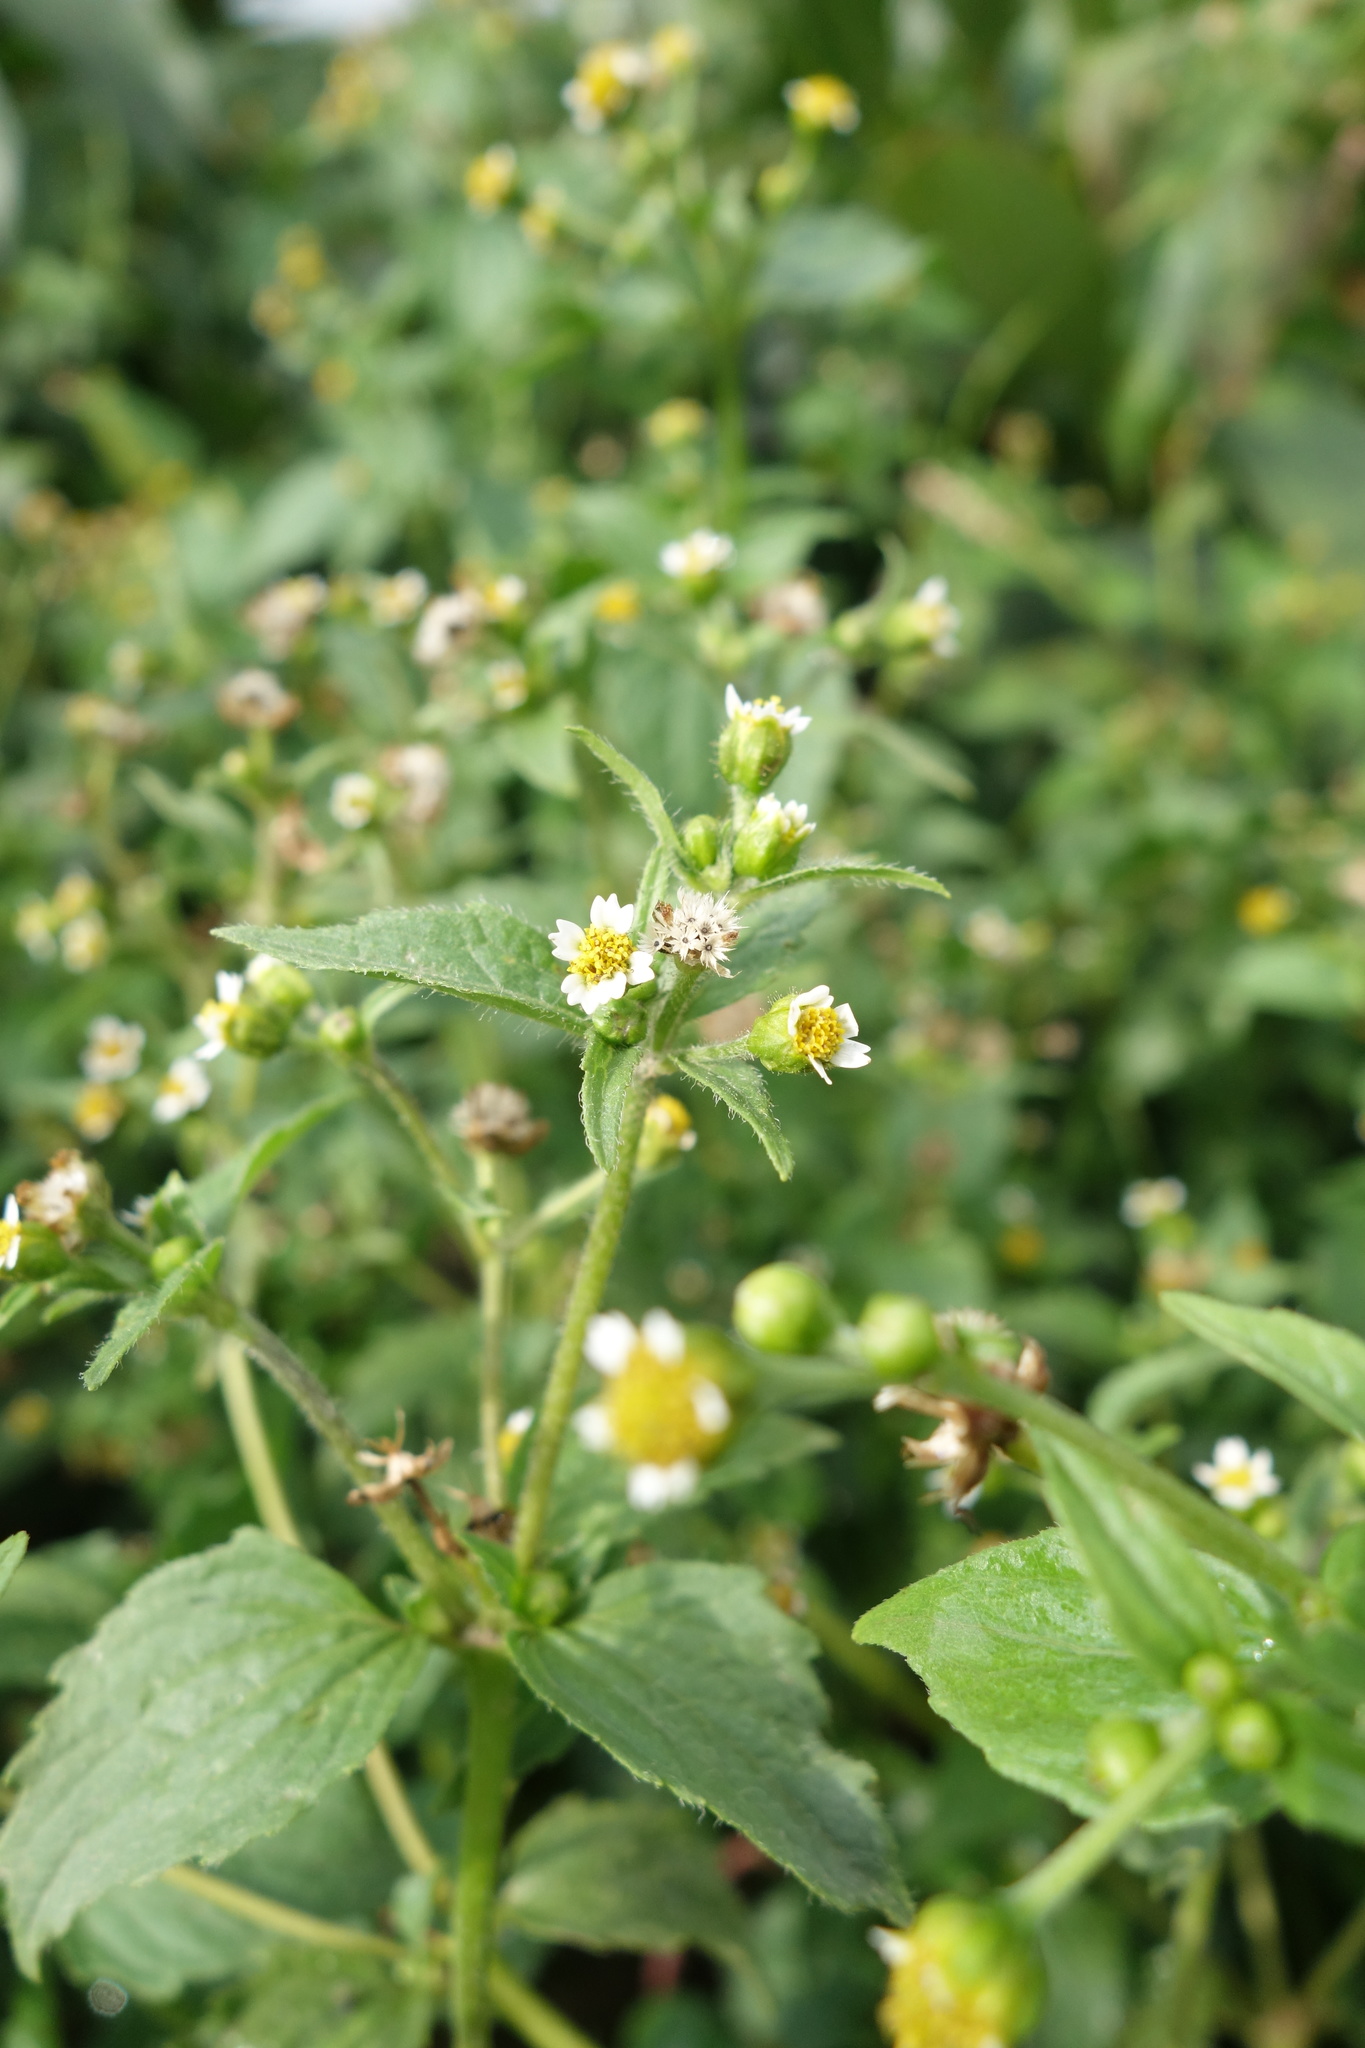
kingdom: Plantae
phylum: Tracheophyta
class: Magnoliopsida
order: Asterales
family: Asteraceae
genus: Galinsoga
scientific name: Galinsoga quadriradiata
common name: Shaggy soldier
